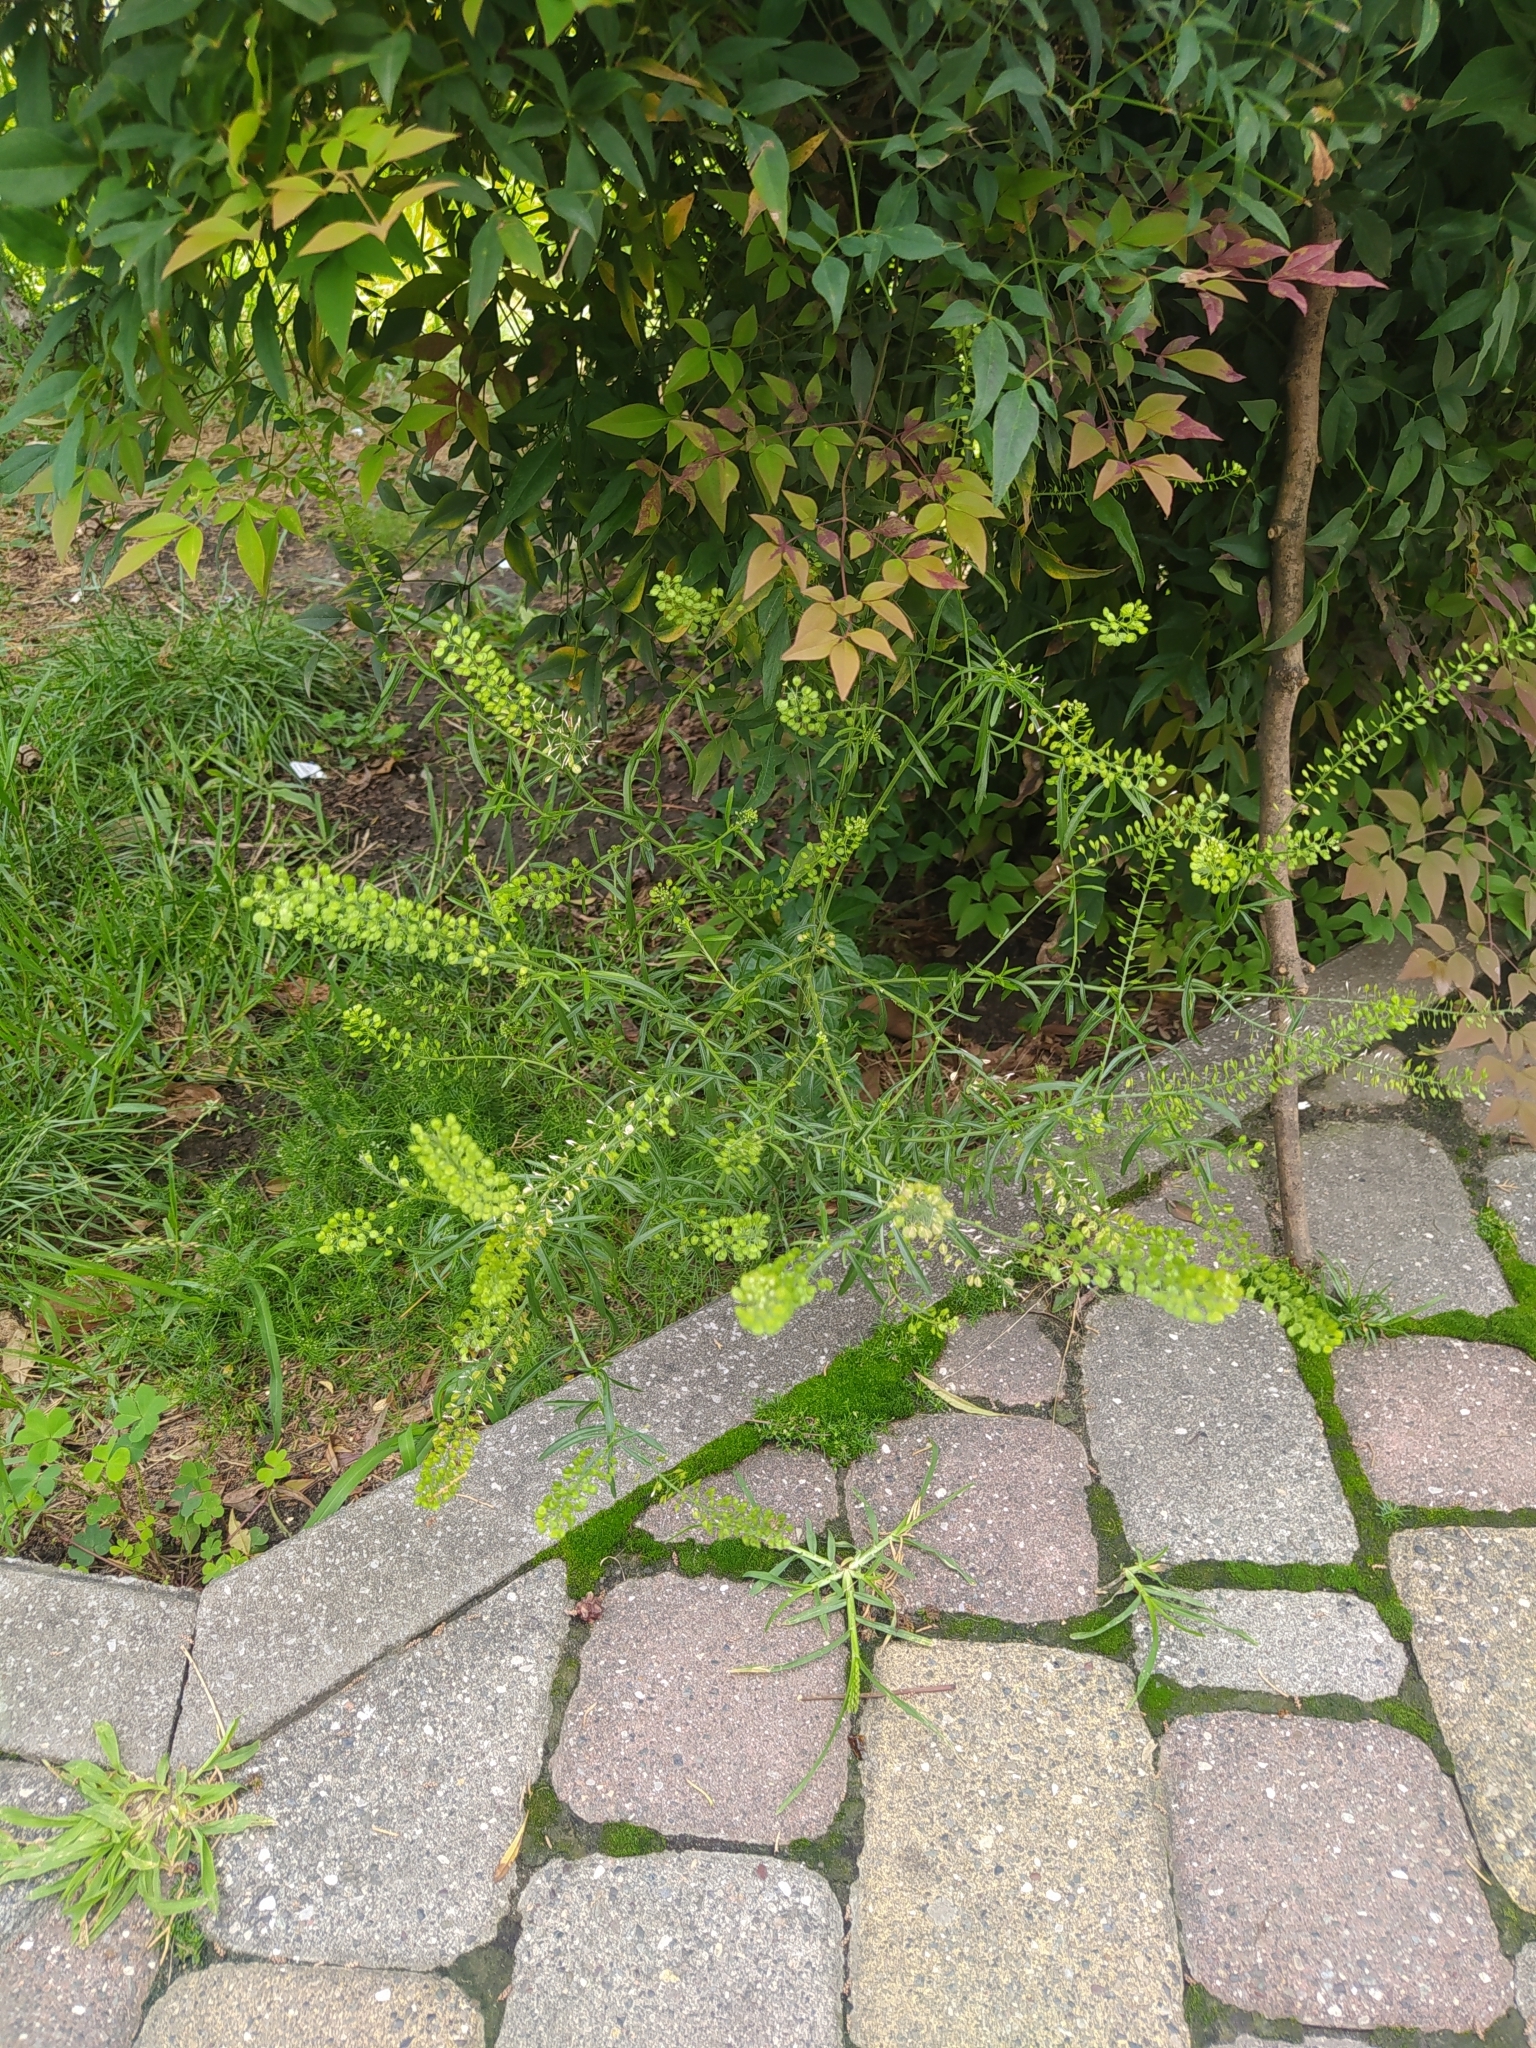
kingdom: Plantae
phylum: Tracheophyta
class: Magnoliopsida
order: Brassicales
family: Brassicaceae
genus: Lepidium
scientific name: Lepidium virginicum
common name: Least pepperwort
